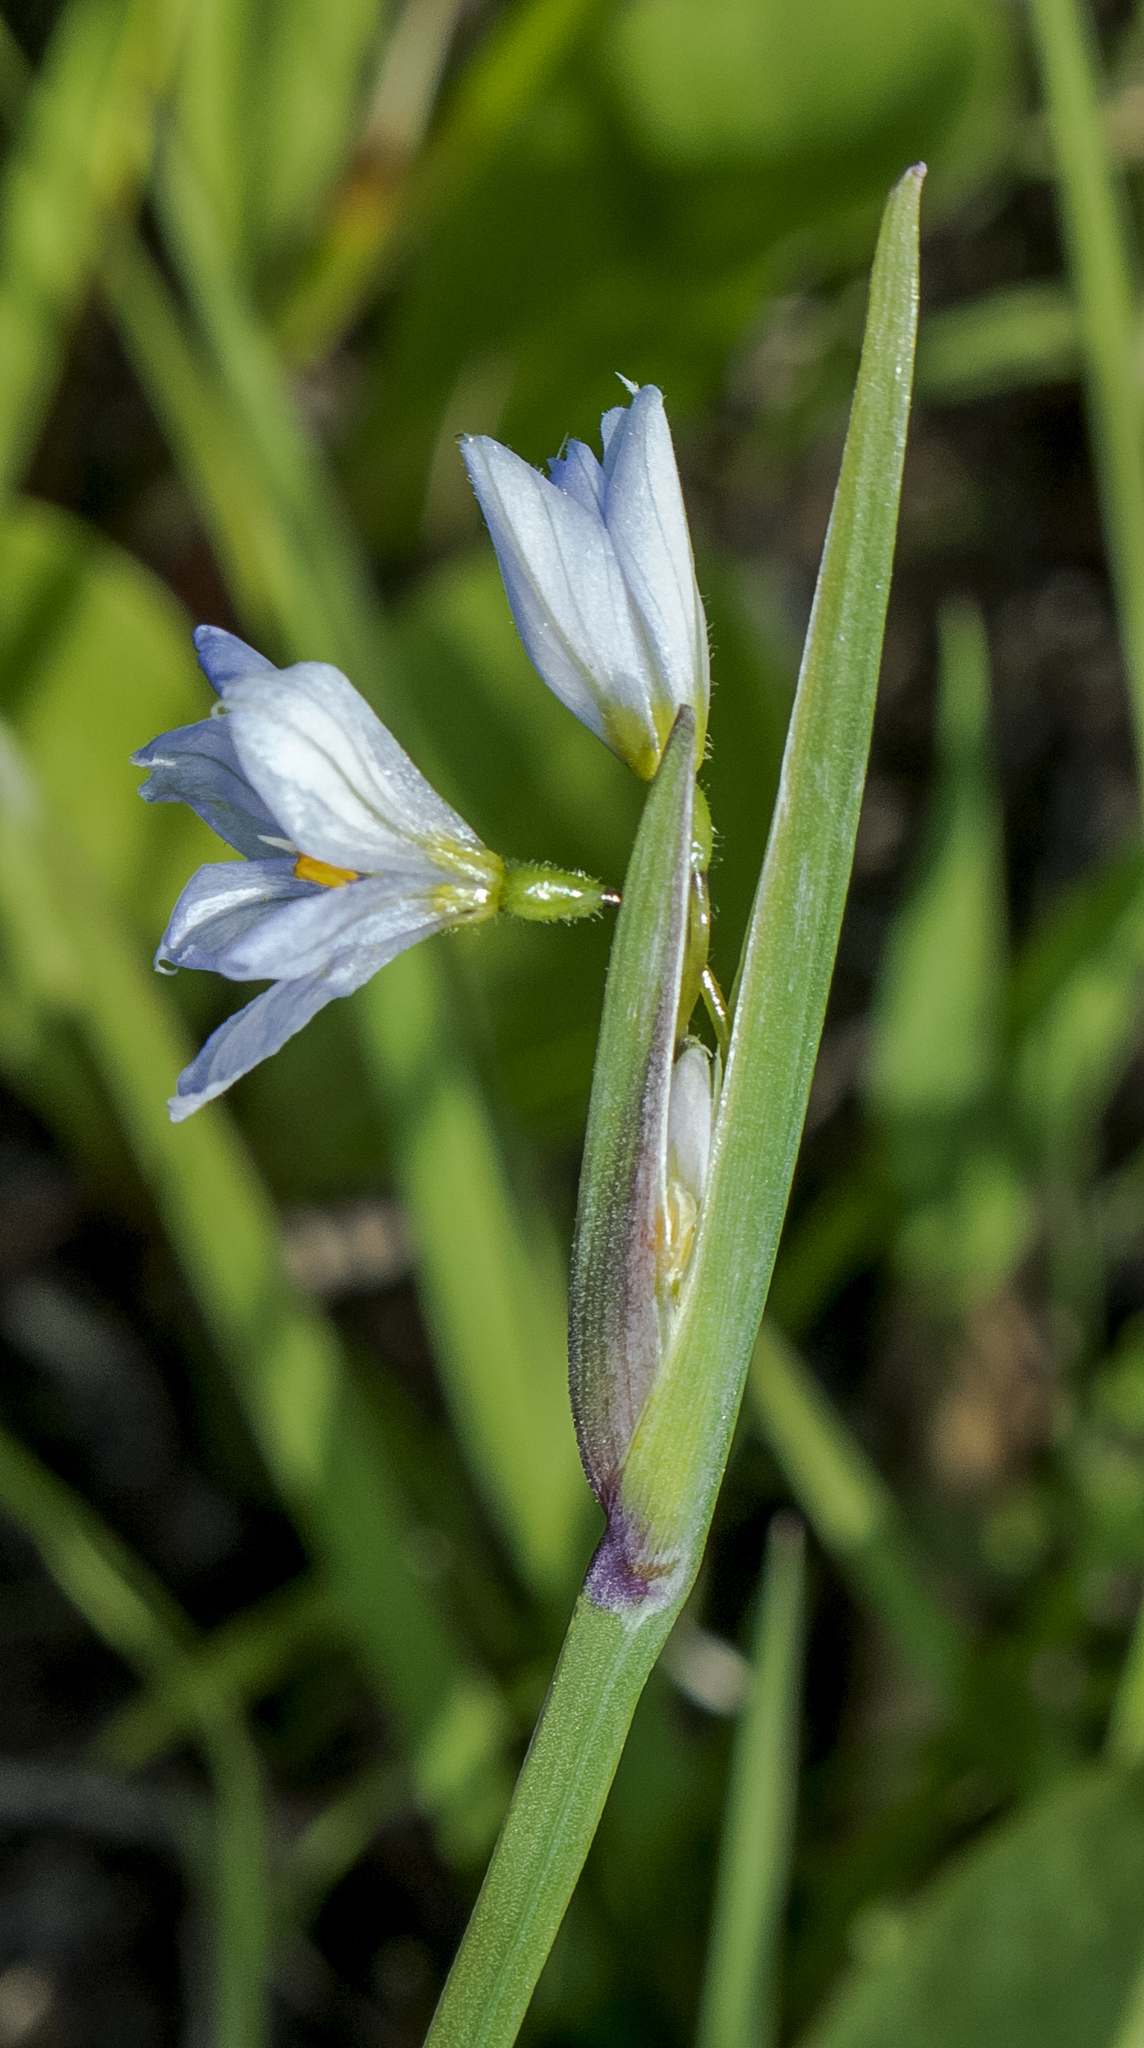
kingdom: Plantae
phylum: Tracheophyta
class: Liliopsida
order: Asparagales
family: Iridaceae
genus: Sisyrinchium
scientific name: Sisyrinchium campestre
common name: Prairie blue-eyed-grass
